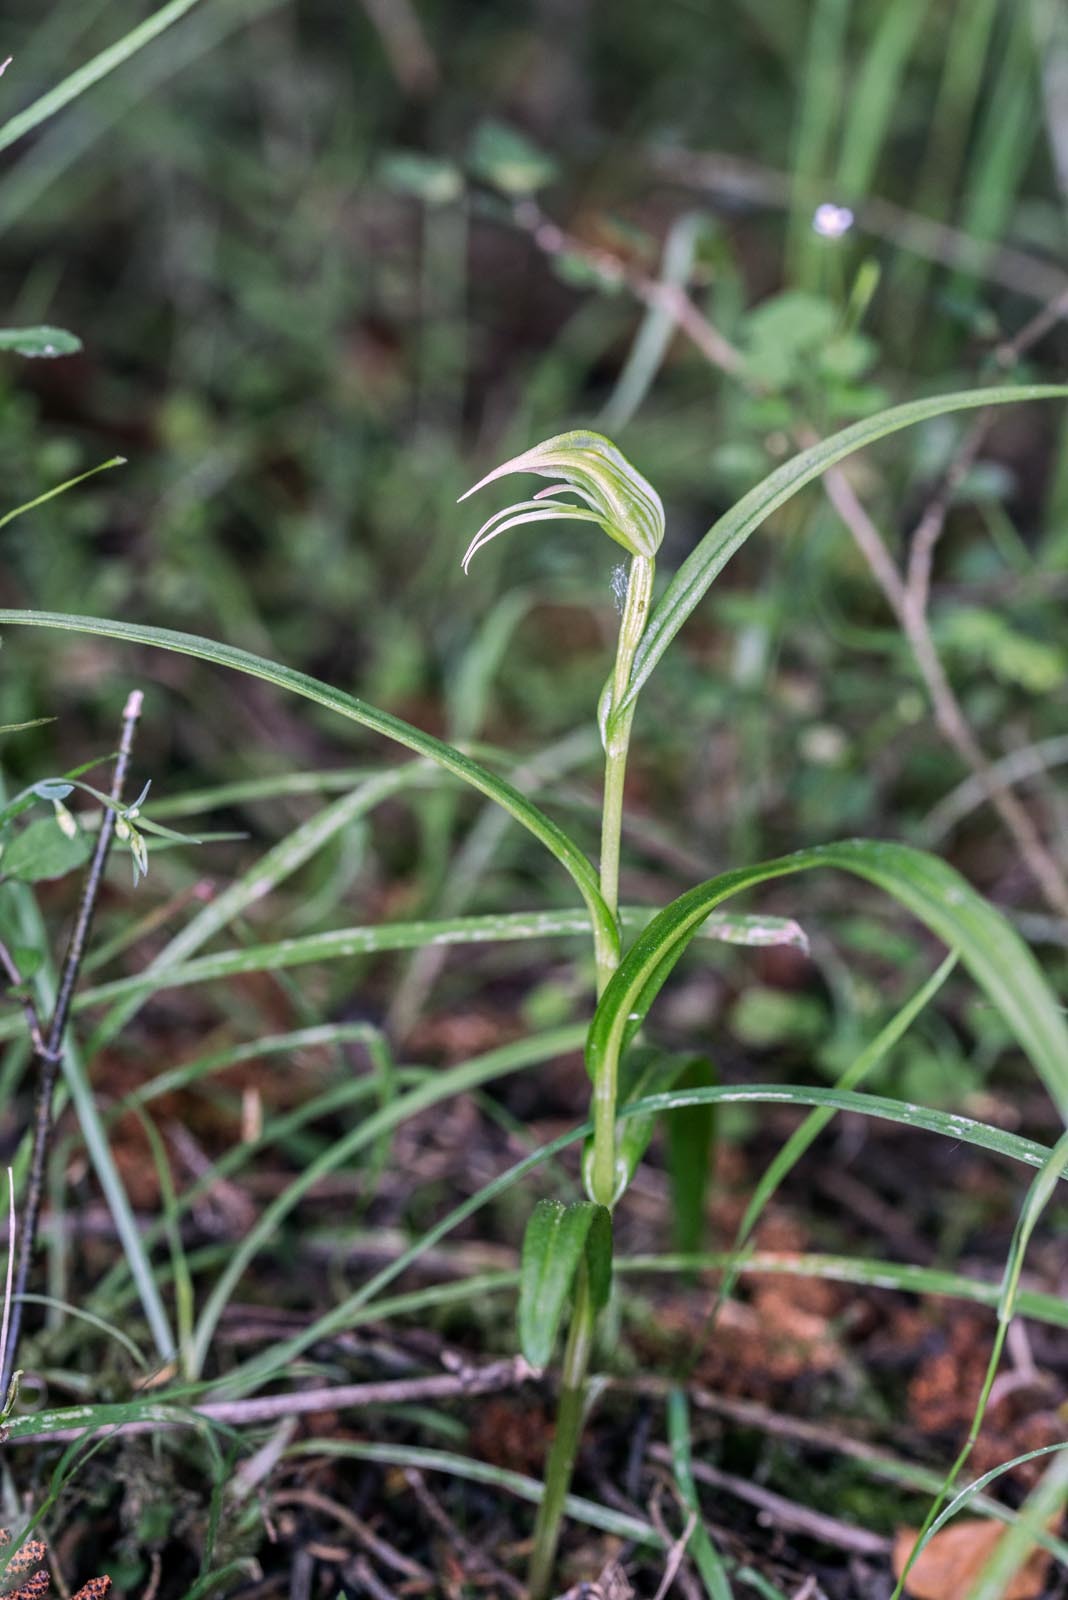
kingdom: Plantae
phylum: Tracheophyta
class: Liliopsida
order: Asparagales
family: Orchidaceae
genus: Pterostylis
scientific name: Pterostylis porrecta
